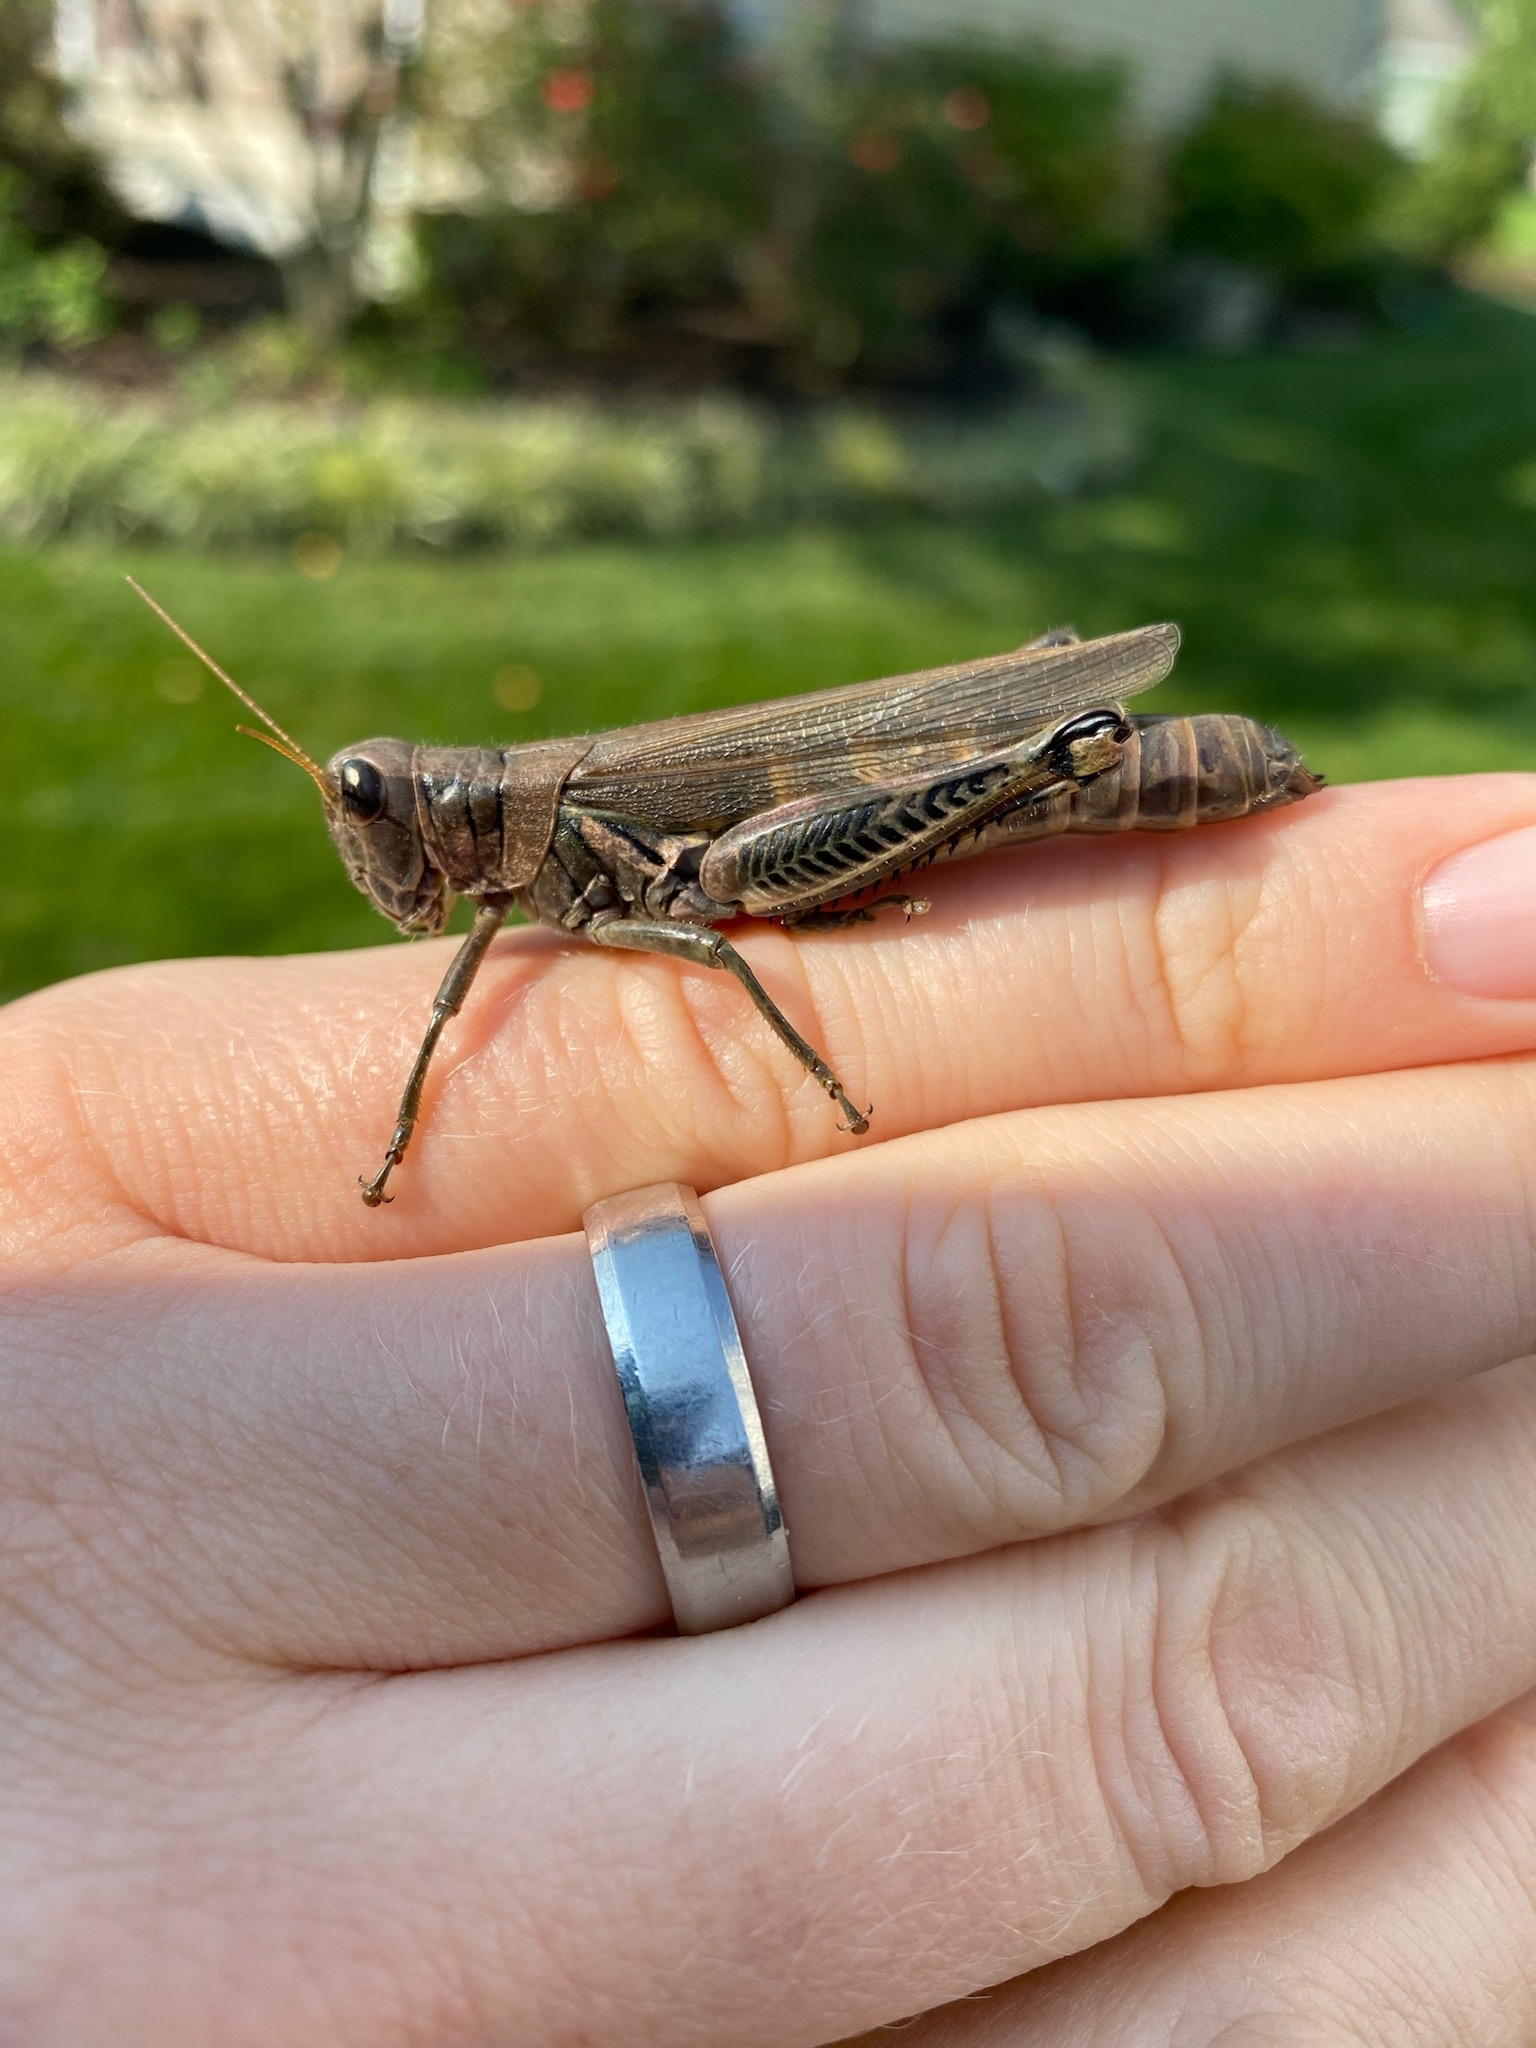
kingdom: Animalia
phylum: Arthropoda
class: Insecta
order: Orthoptera
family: Acrididae
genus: Melanoplus
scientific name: Melanoplus differentialis
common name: Differential grasshopper
